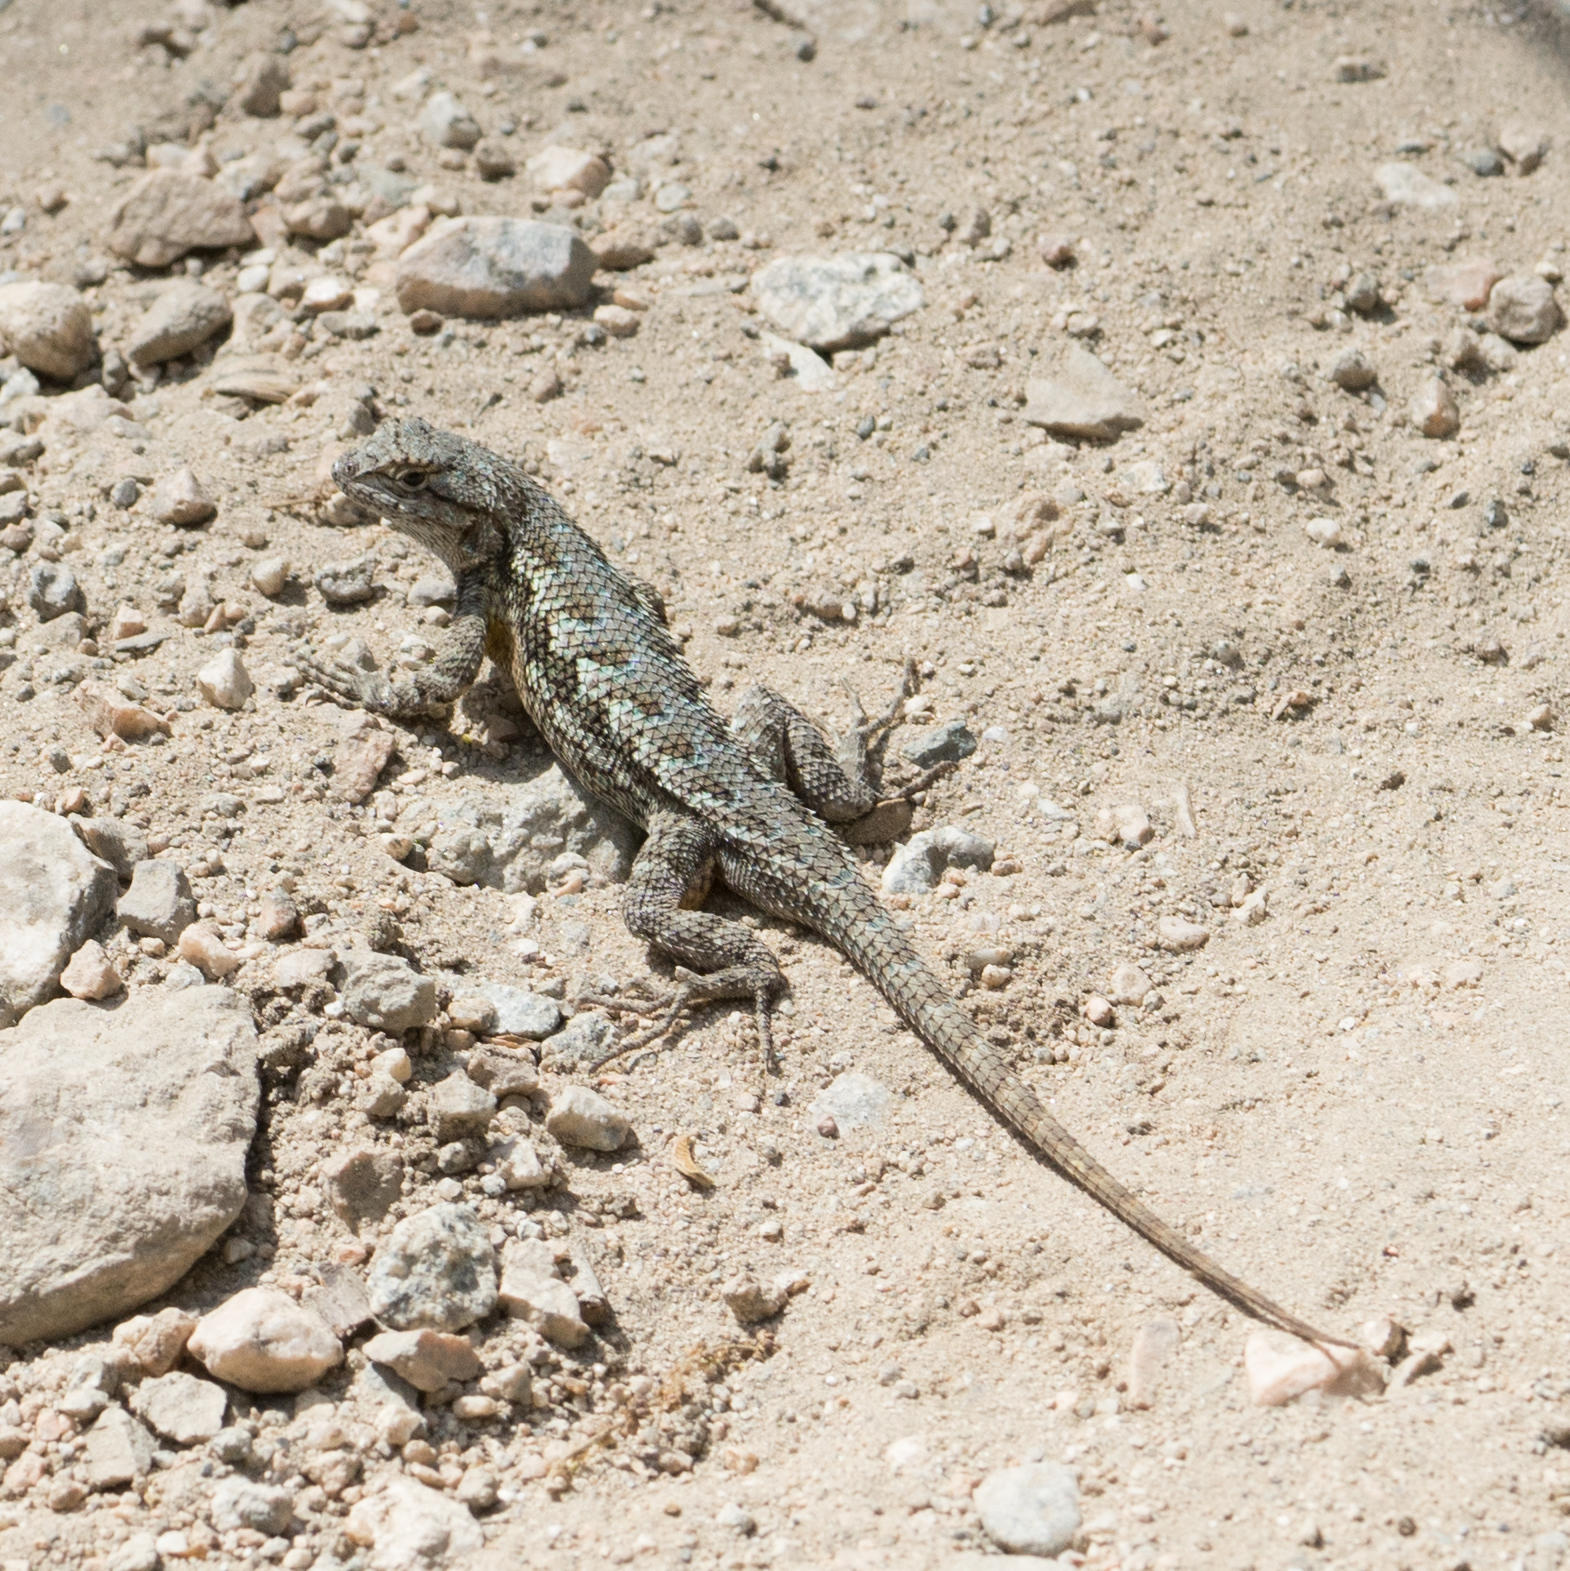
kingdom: Animalia
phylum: Chordata
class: Squamata
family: Phrynosomatidae
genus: Sceloporus
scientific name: Sceloporus occidentalis
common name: Western fence lizard
